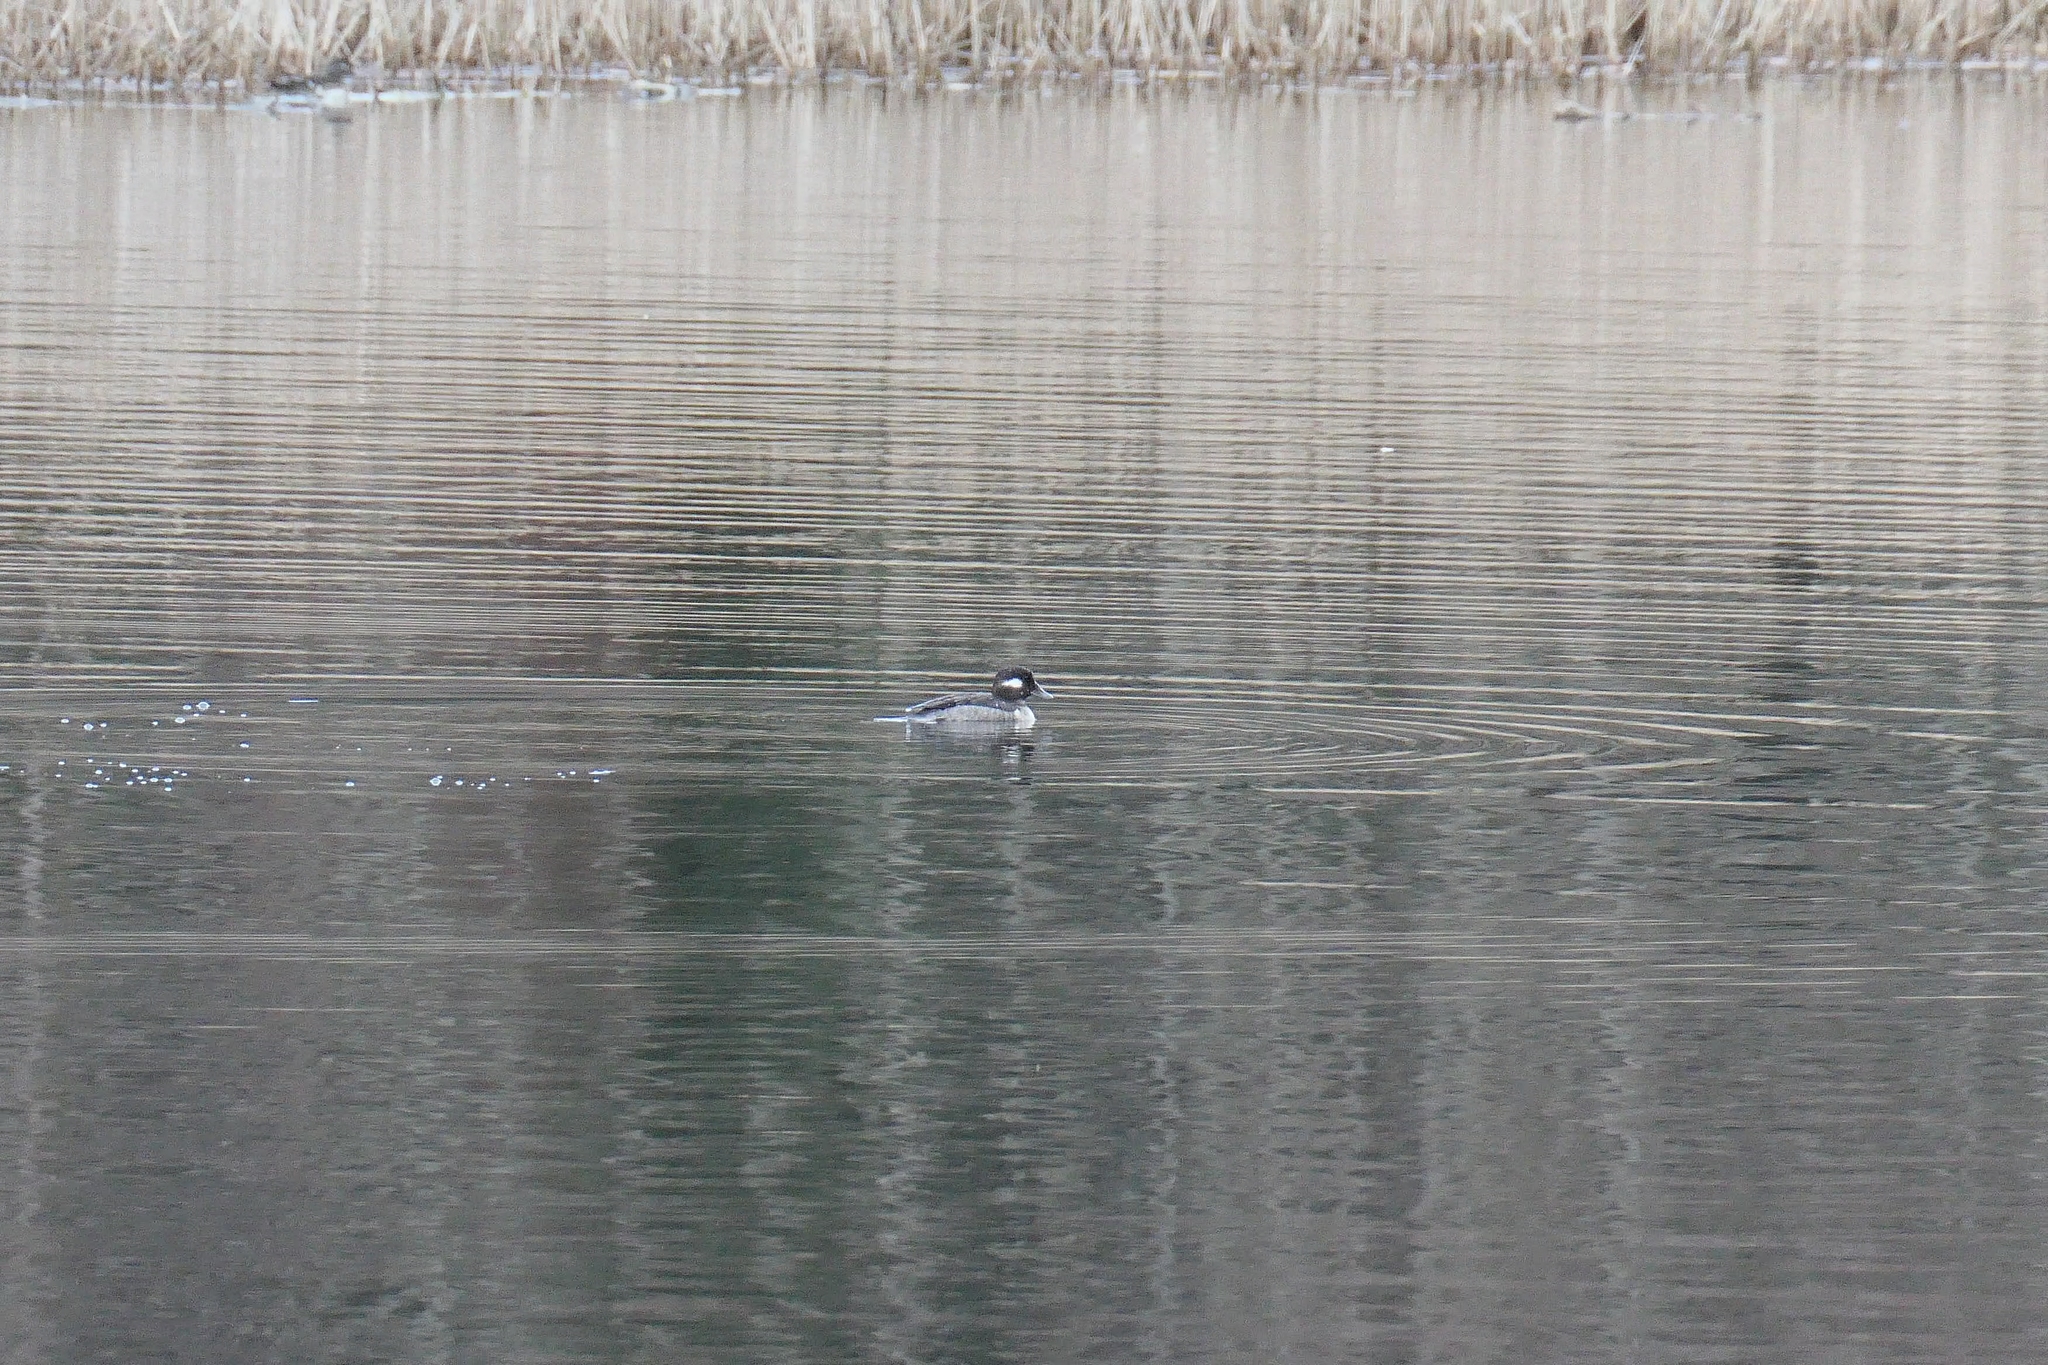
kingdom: Animalia
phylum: Chordata
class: Aves
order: Anseriformes
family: Anatidae
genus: Bucephala
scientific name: Bucephala albeola
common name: Bufflehead
